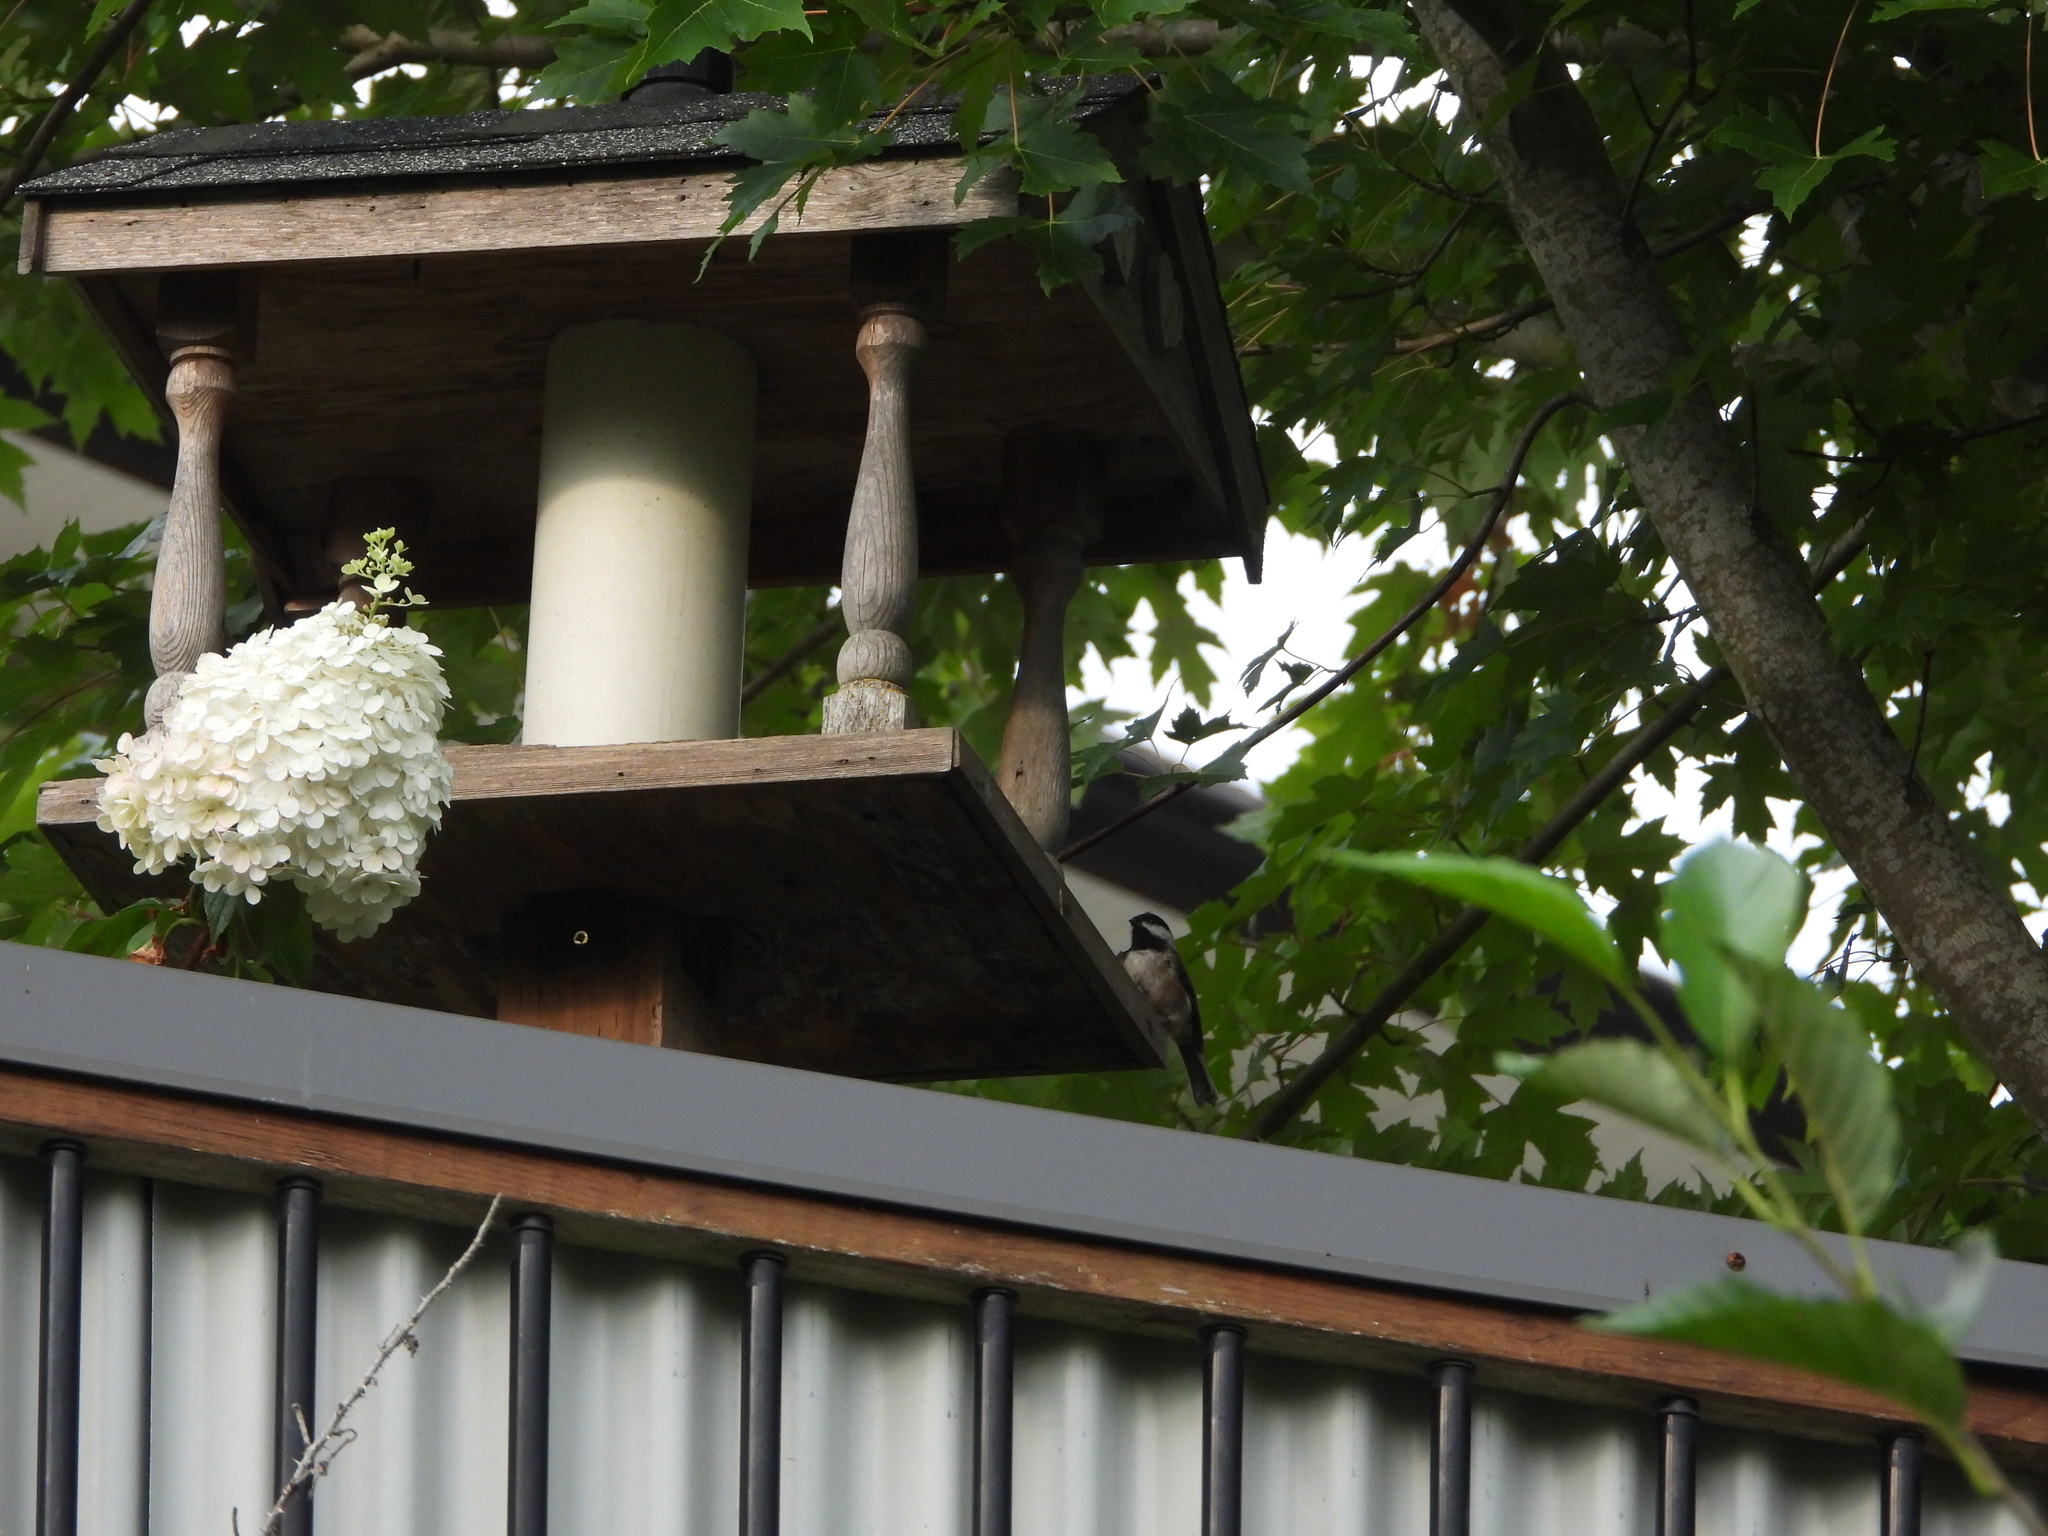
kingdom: Animalia
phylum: Chordata
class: Aves
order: Passeriformes
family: Paridae
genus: Poecile
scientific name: Poecile atricapillus
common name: Black-capped chickadee
